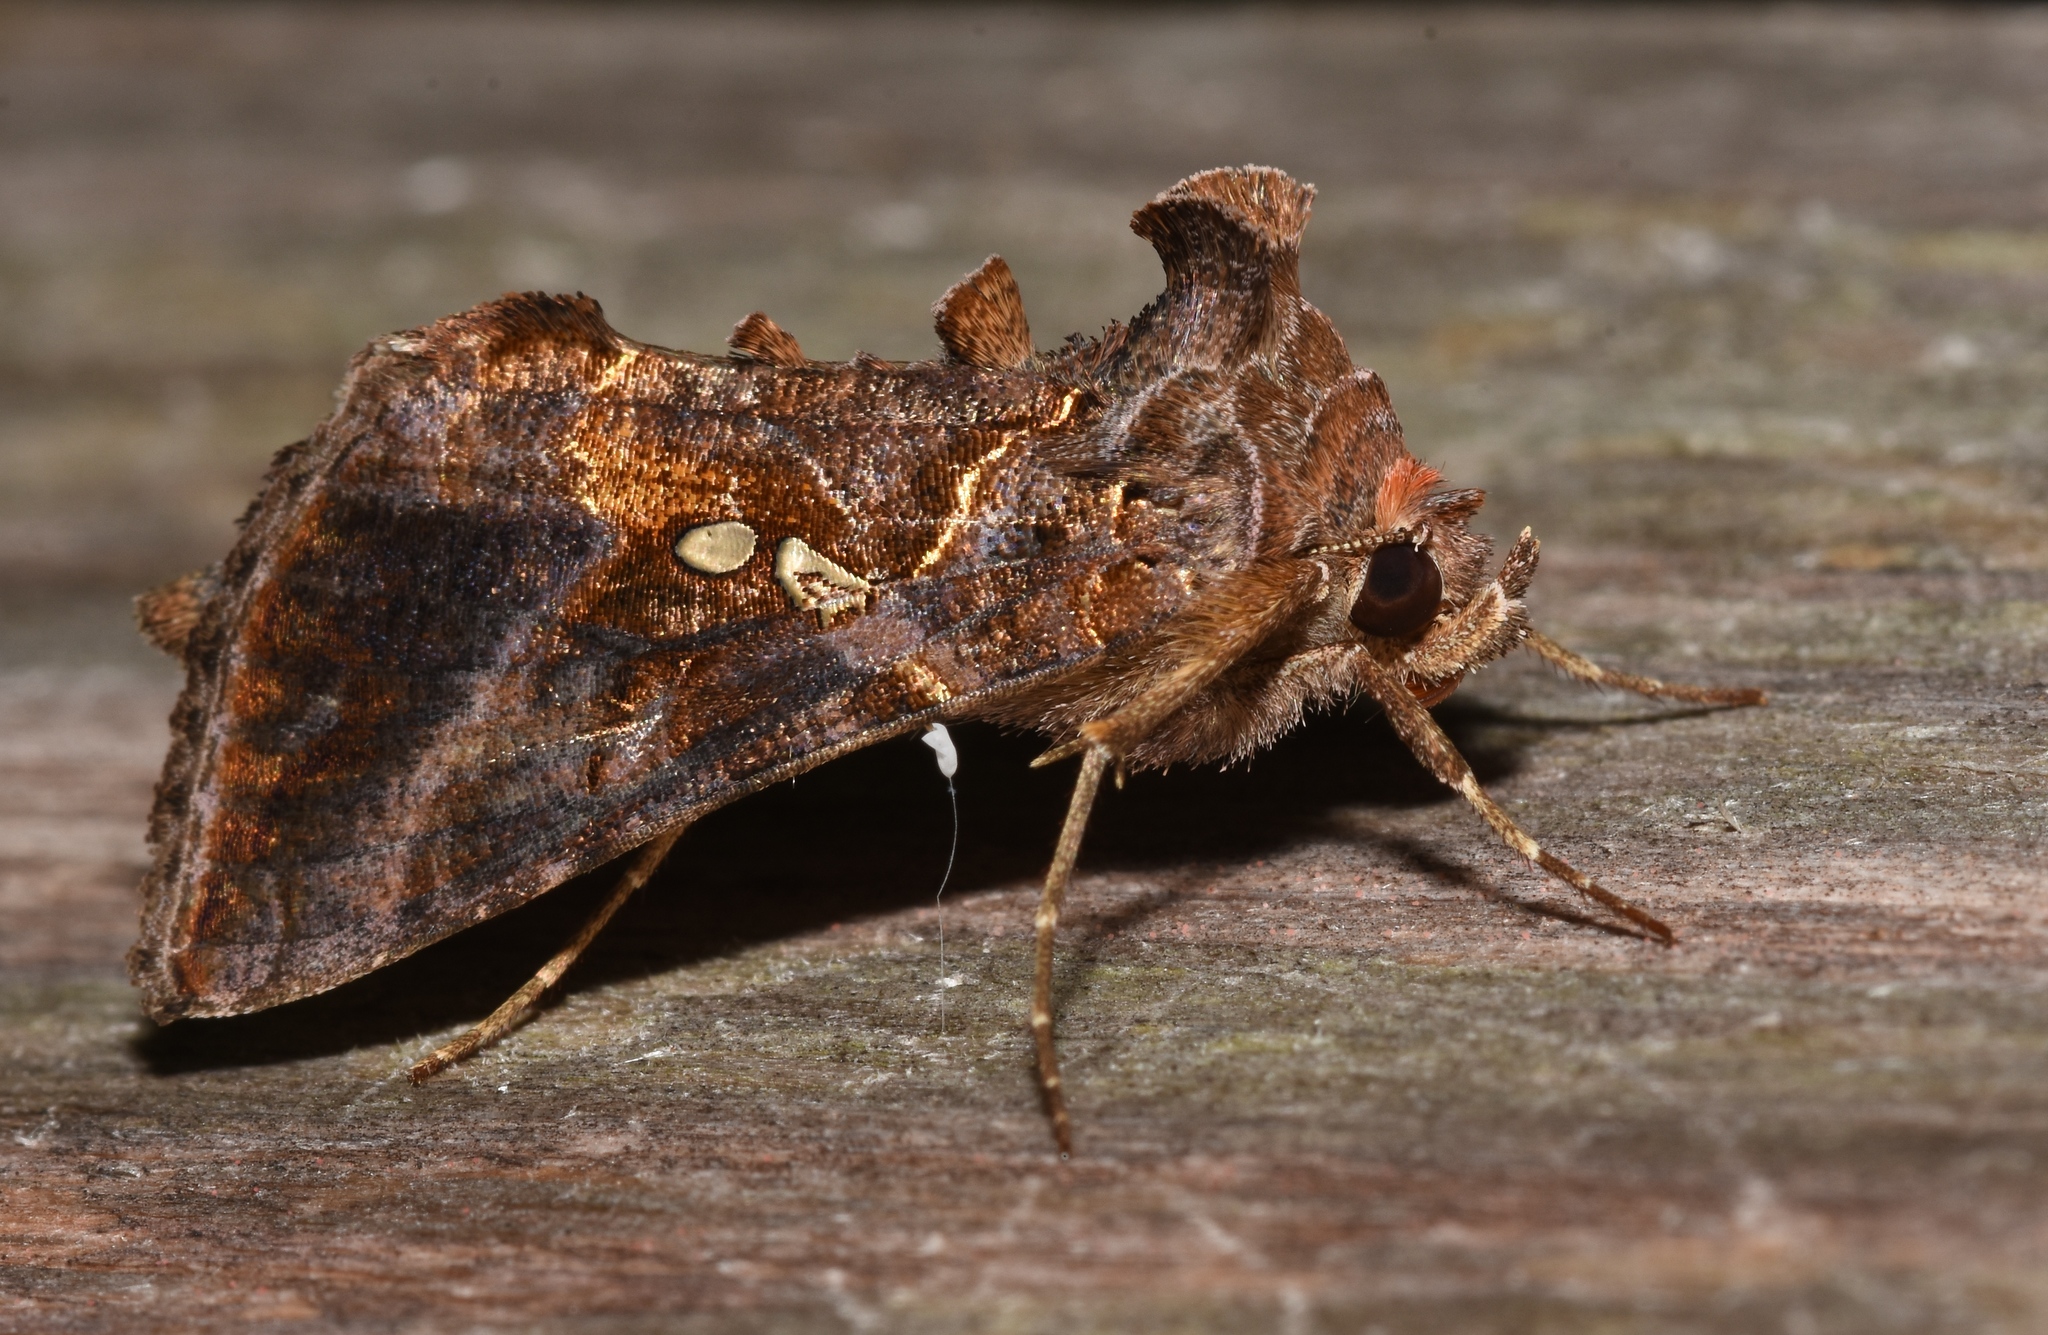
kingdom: Animalia
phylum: Arthropoda
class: Insecta
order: Lepidoptera
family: Noctuidae
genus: Autographa
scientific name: Autographa precationis
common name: Common looper moth
